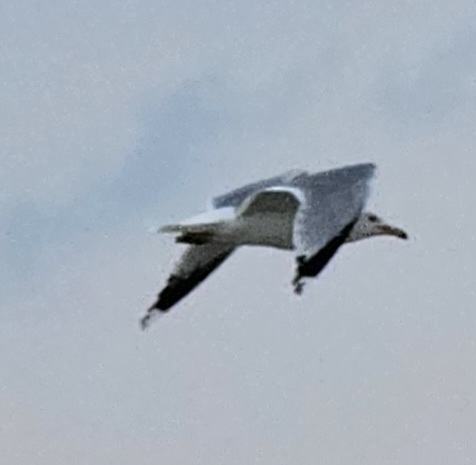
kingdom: Animalia
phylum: Chordata
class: Aves
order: Charadriiformes
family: Laridae
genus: Larus
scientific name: Larus californicus
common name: California gull
